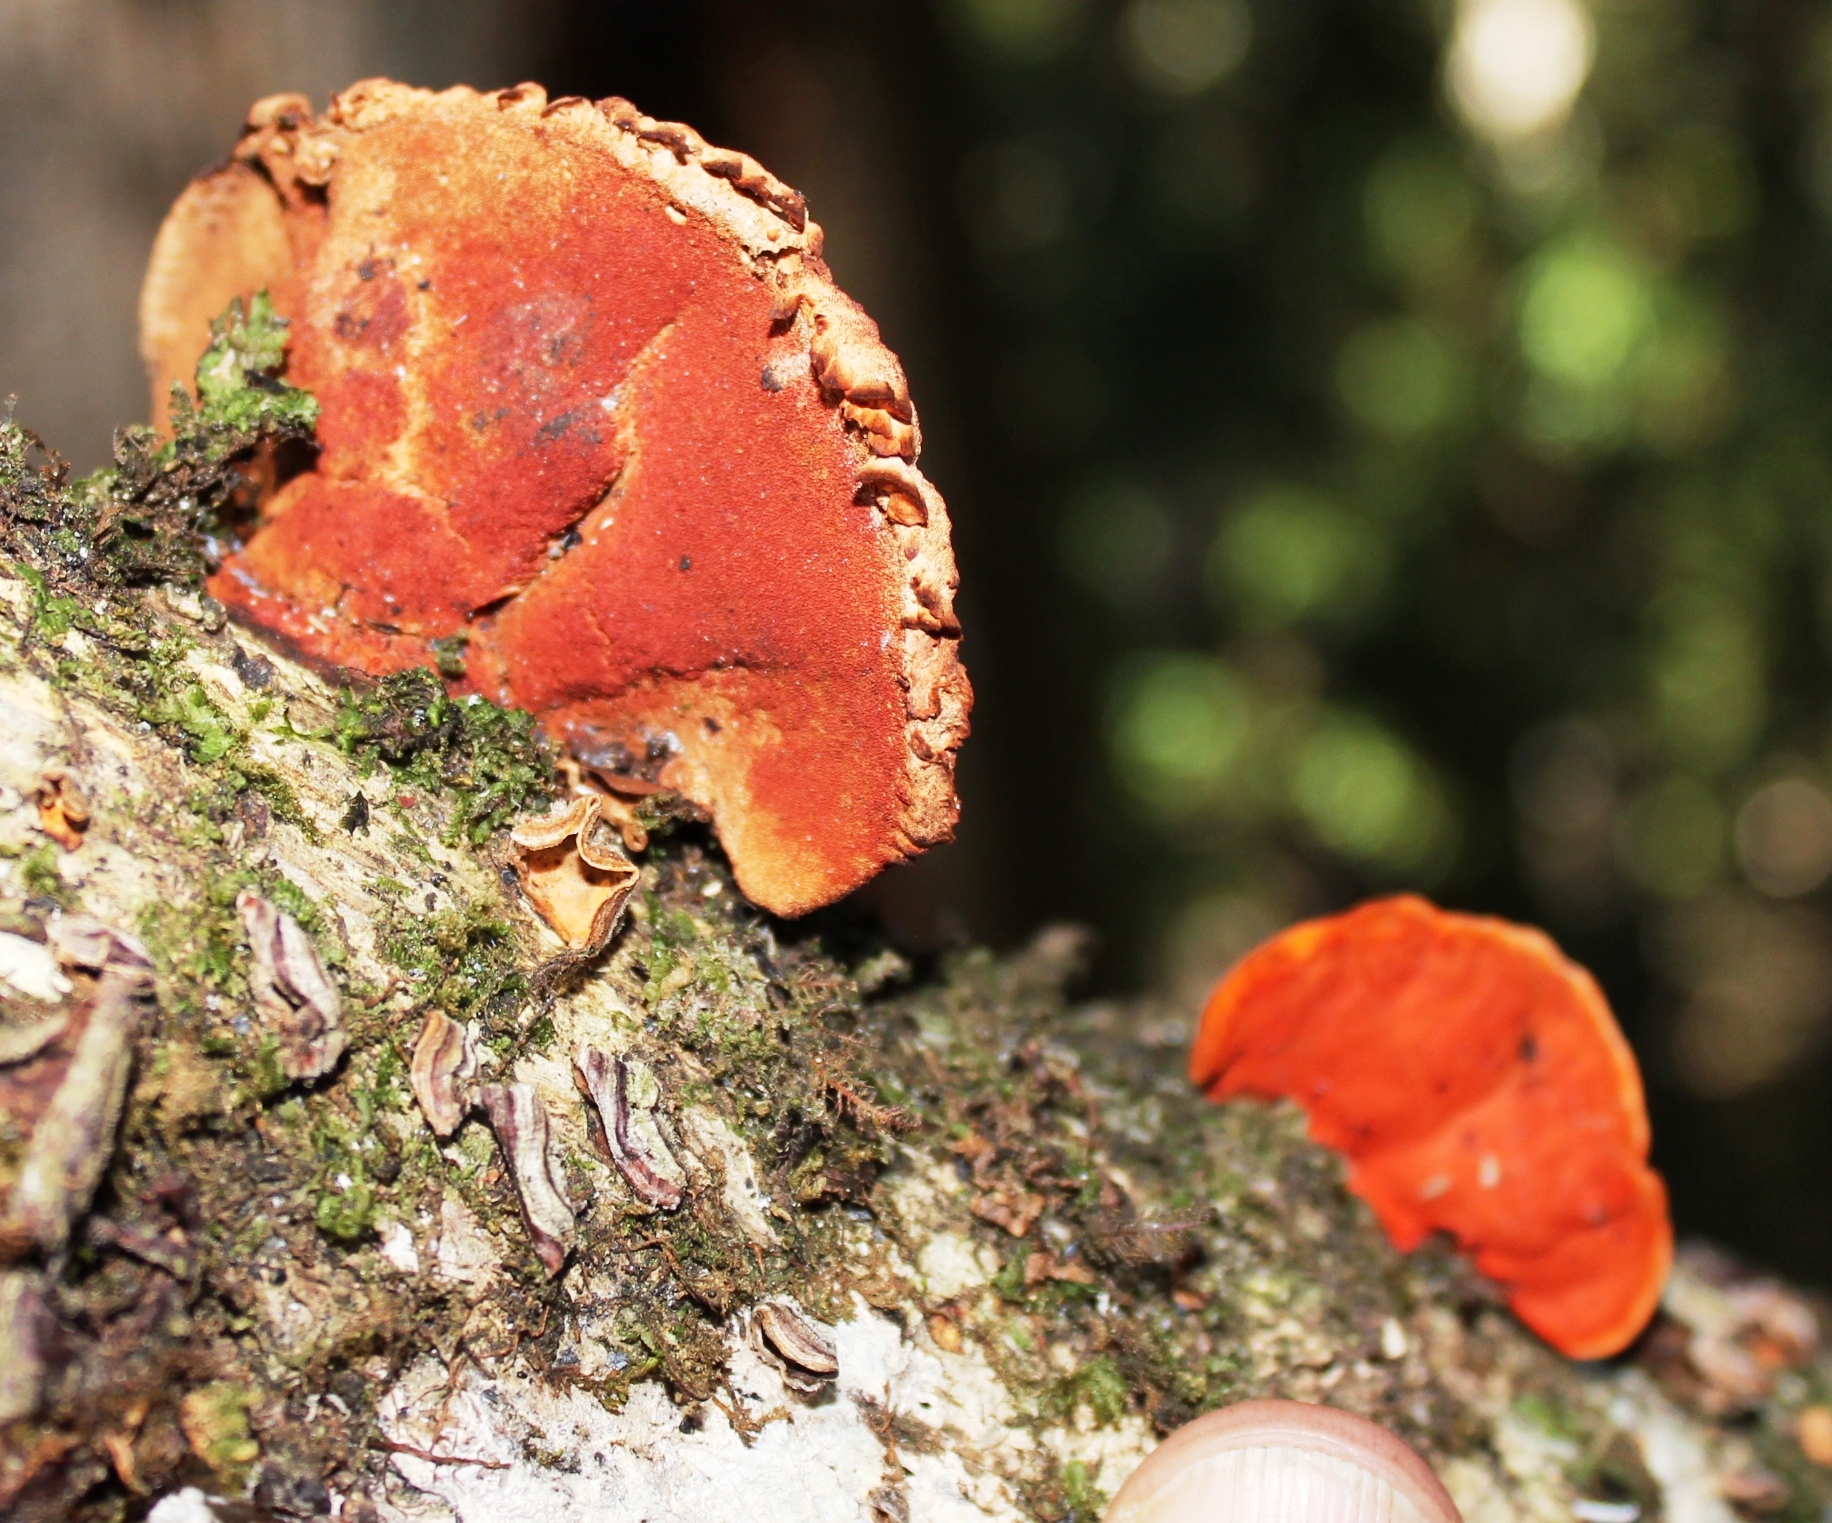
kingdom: Fungi
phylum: Basidiomycota
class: Agaricomycetes
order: Polyporales
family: Polyporaceae
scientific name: Polyporaceae
